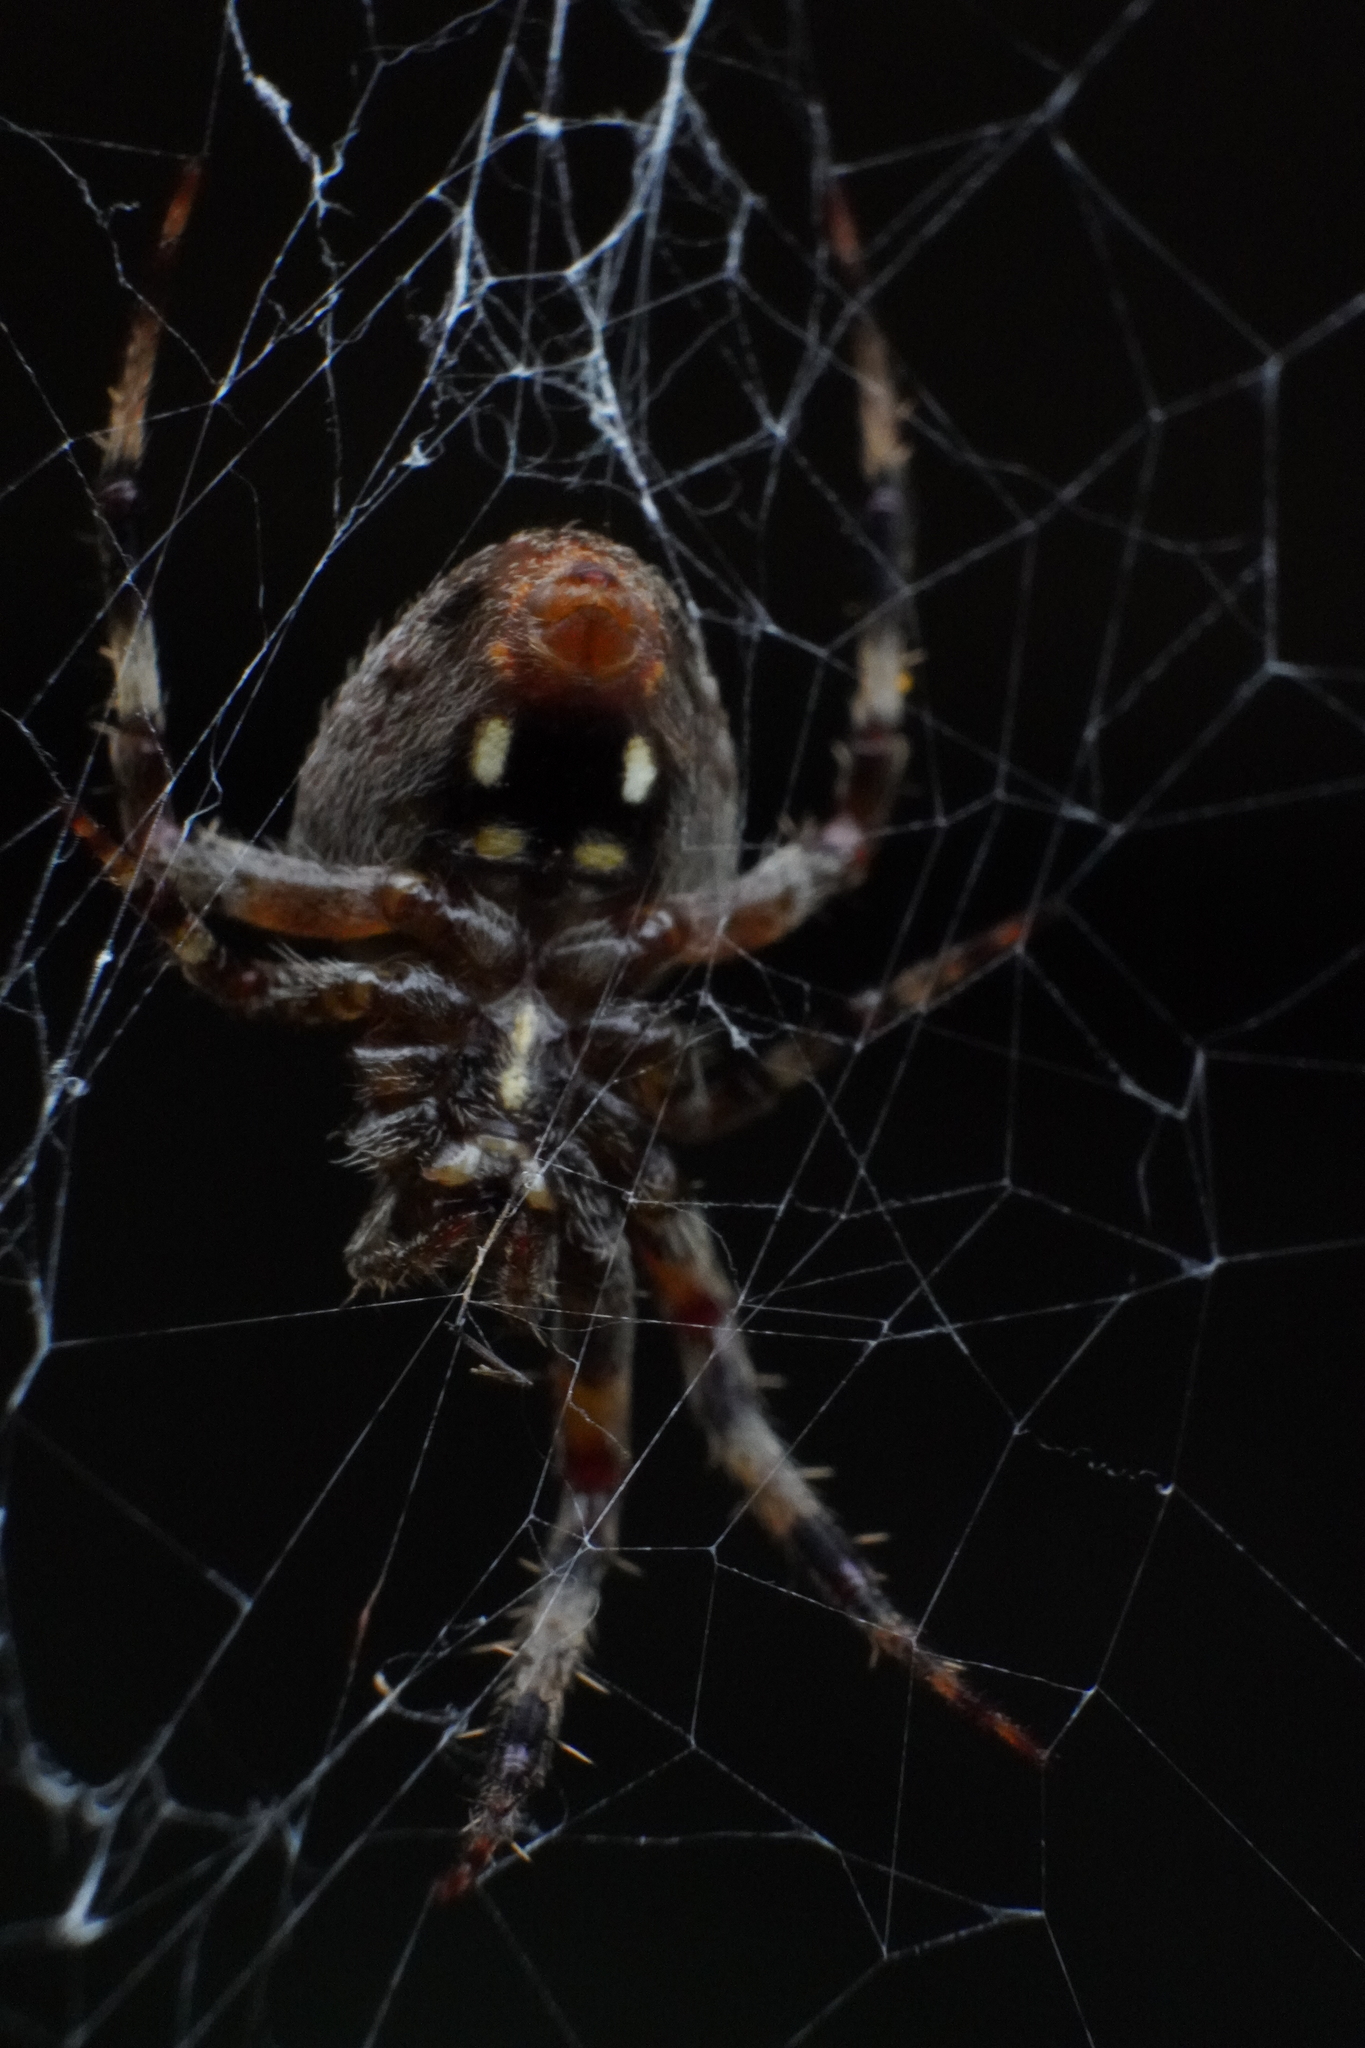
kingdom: Animalia
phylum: Arthropoda
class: Arachnida
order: Araneae
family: Araneidae
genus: Neoscona
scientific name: Neoscona
